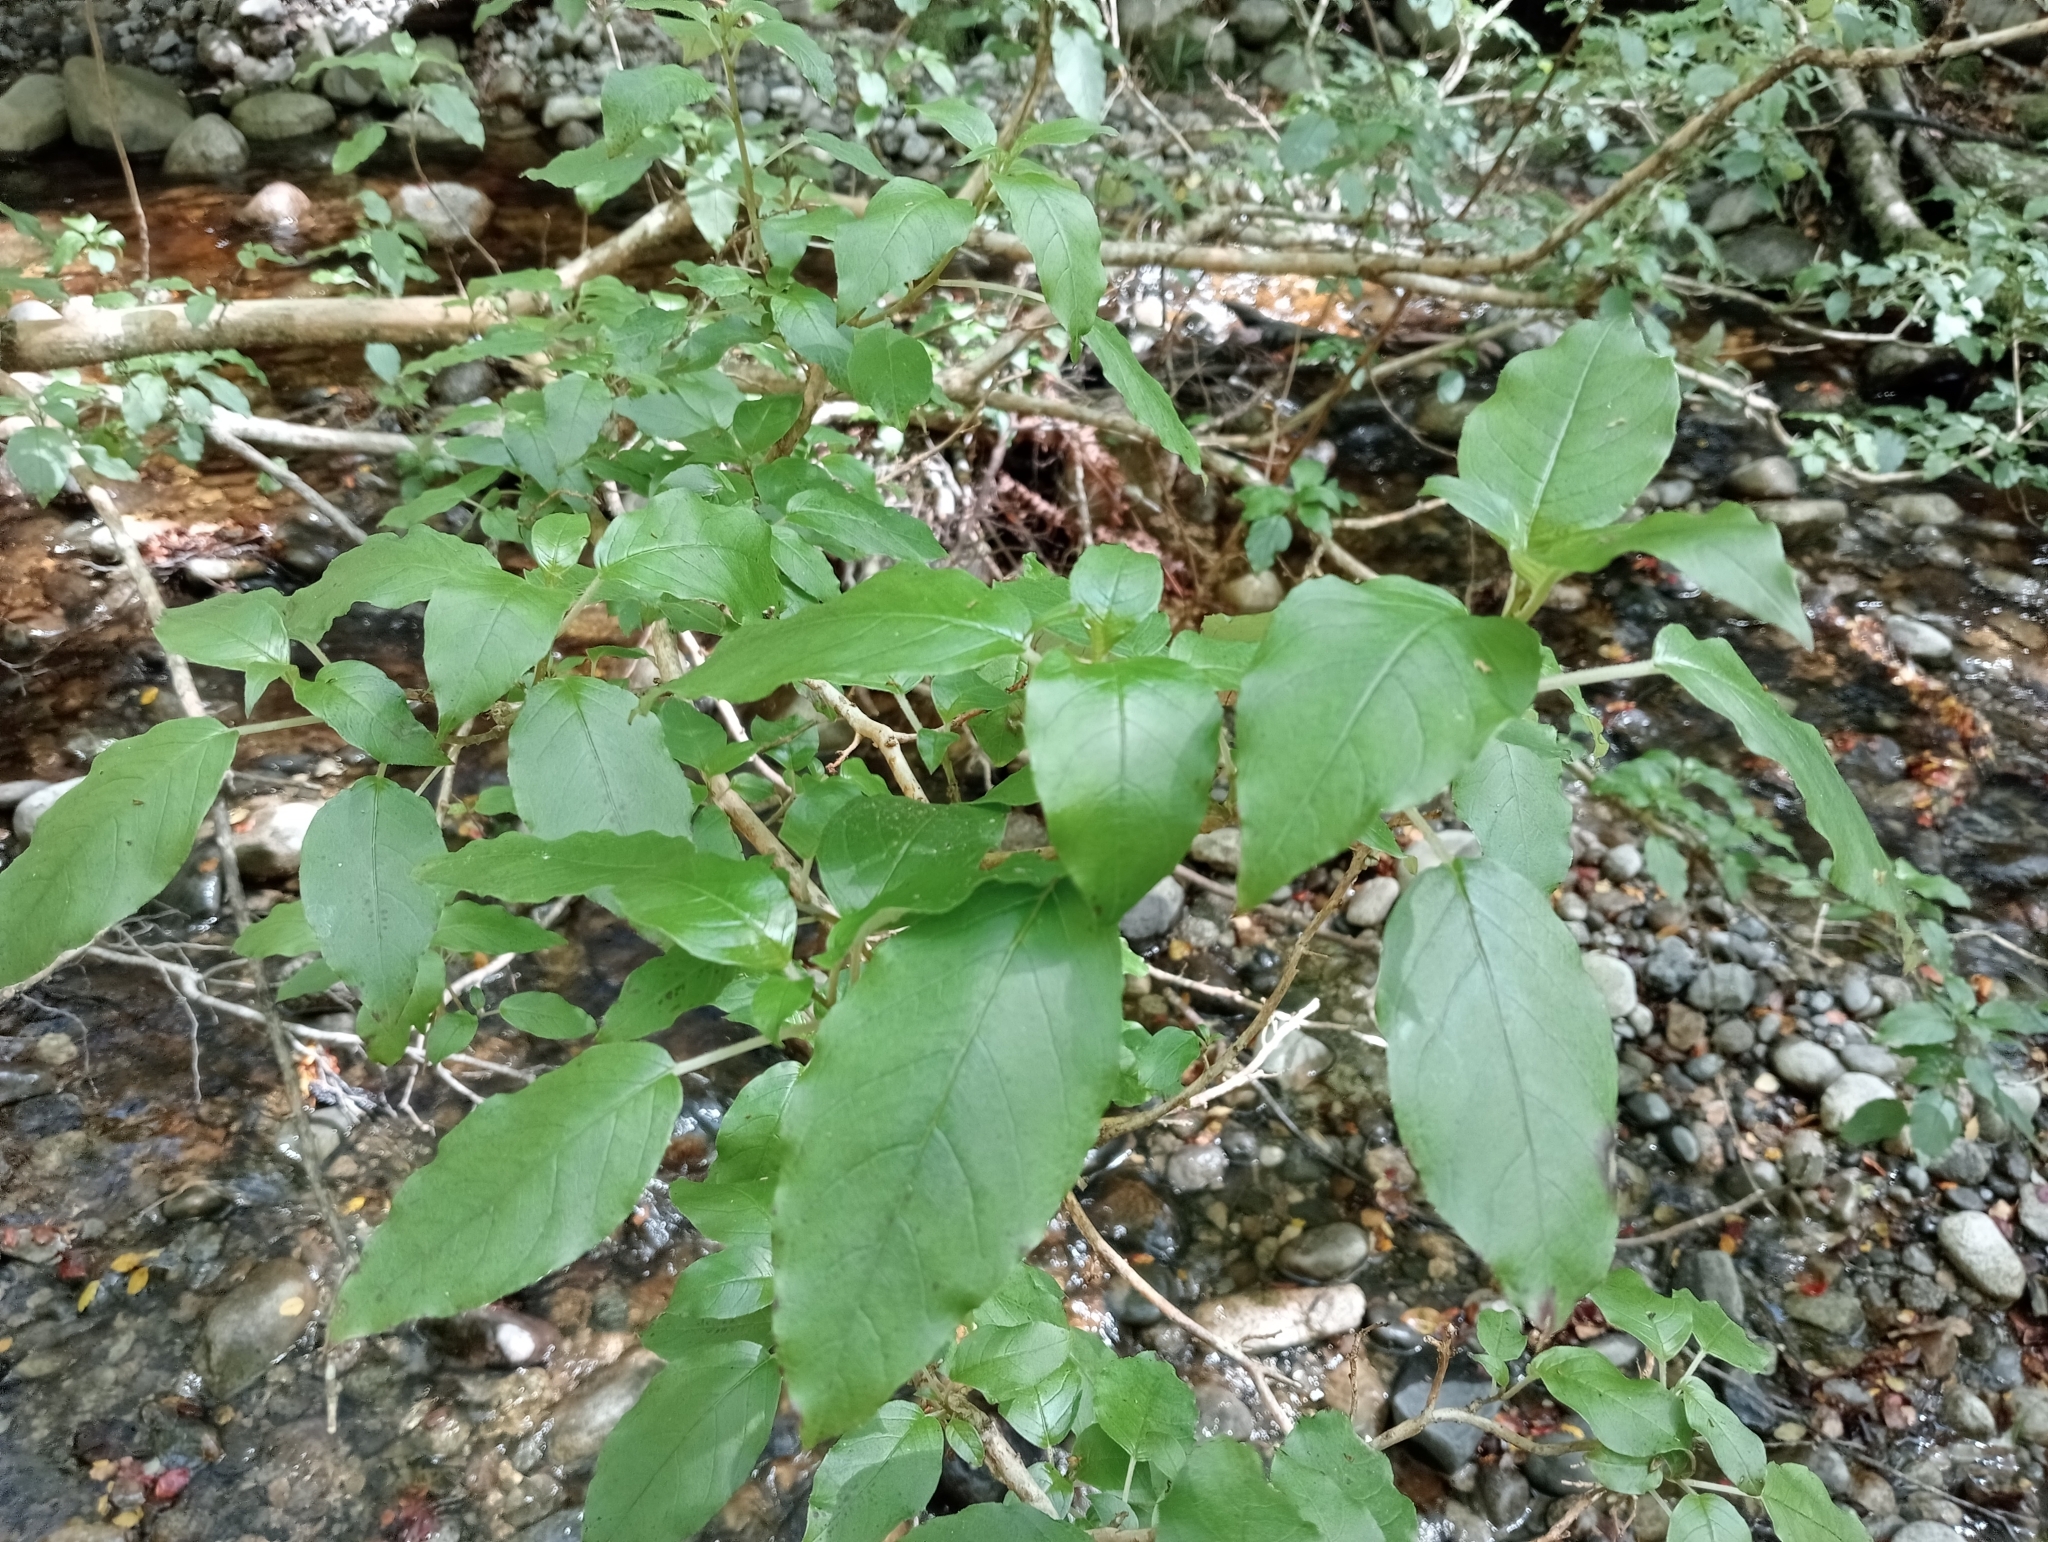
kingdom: Plantae
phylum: Tracheophyta
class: Magnoliopsida
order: Myrtales
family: Onagraceae
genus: Fuchsia
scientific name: Fuchsia excorticata
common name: Tree fuchsia
